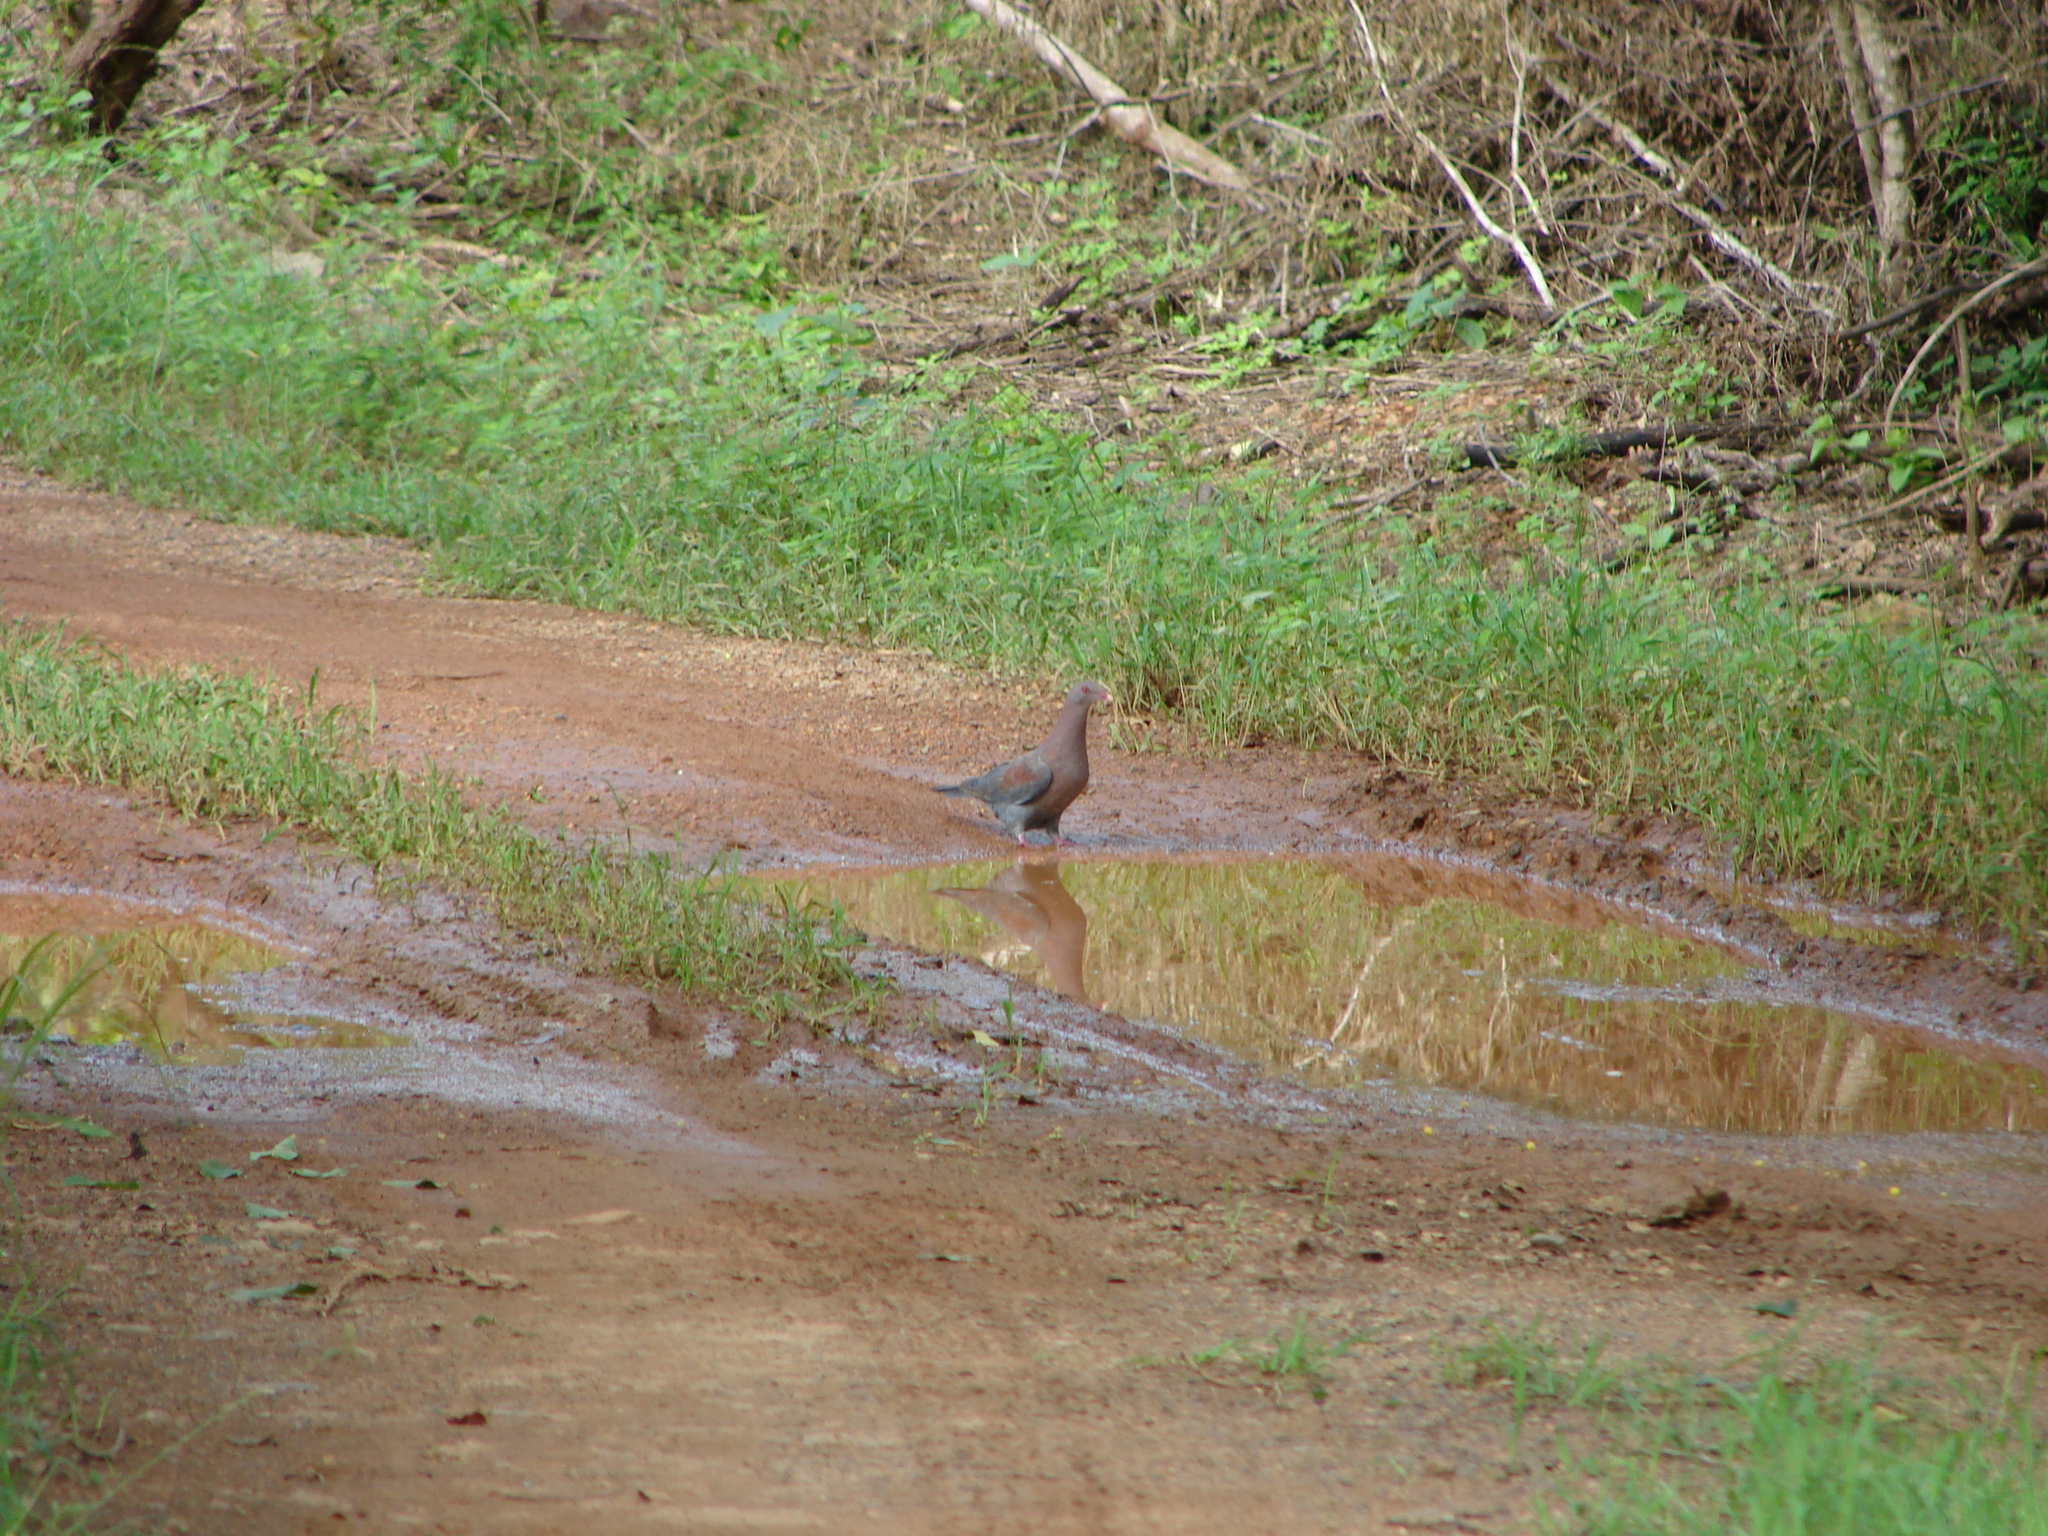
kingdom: Animalia
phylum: Chordata
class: Aves
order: Columbiformes
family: Columbidae
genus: Patagioenas
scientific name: Patagioenas flavirostris
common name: Red-billed pigeon
